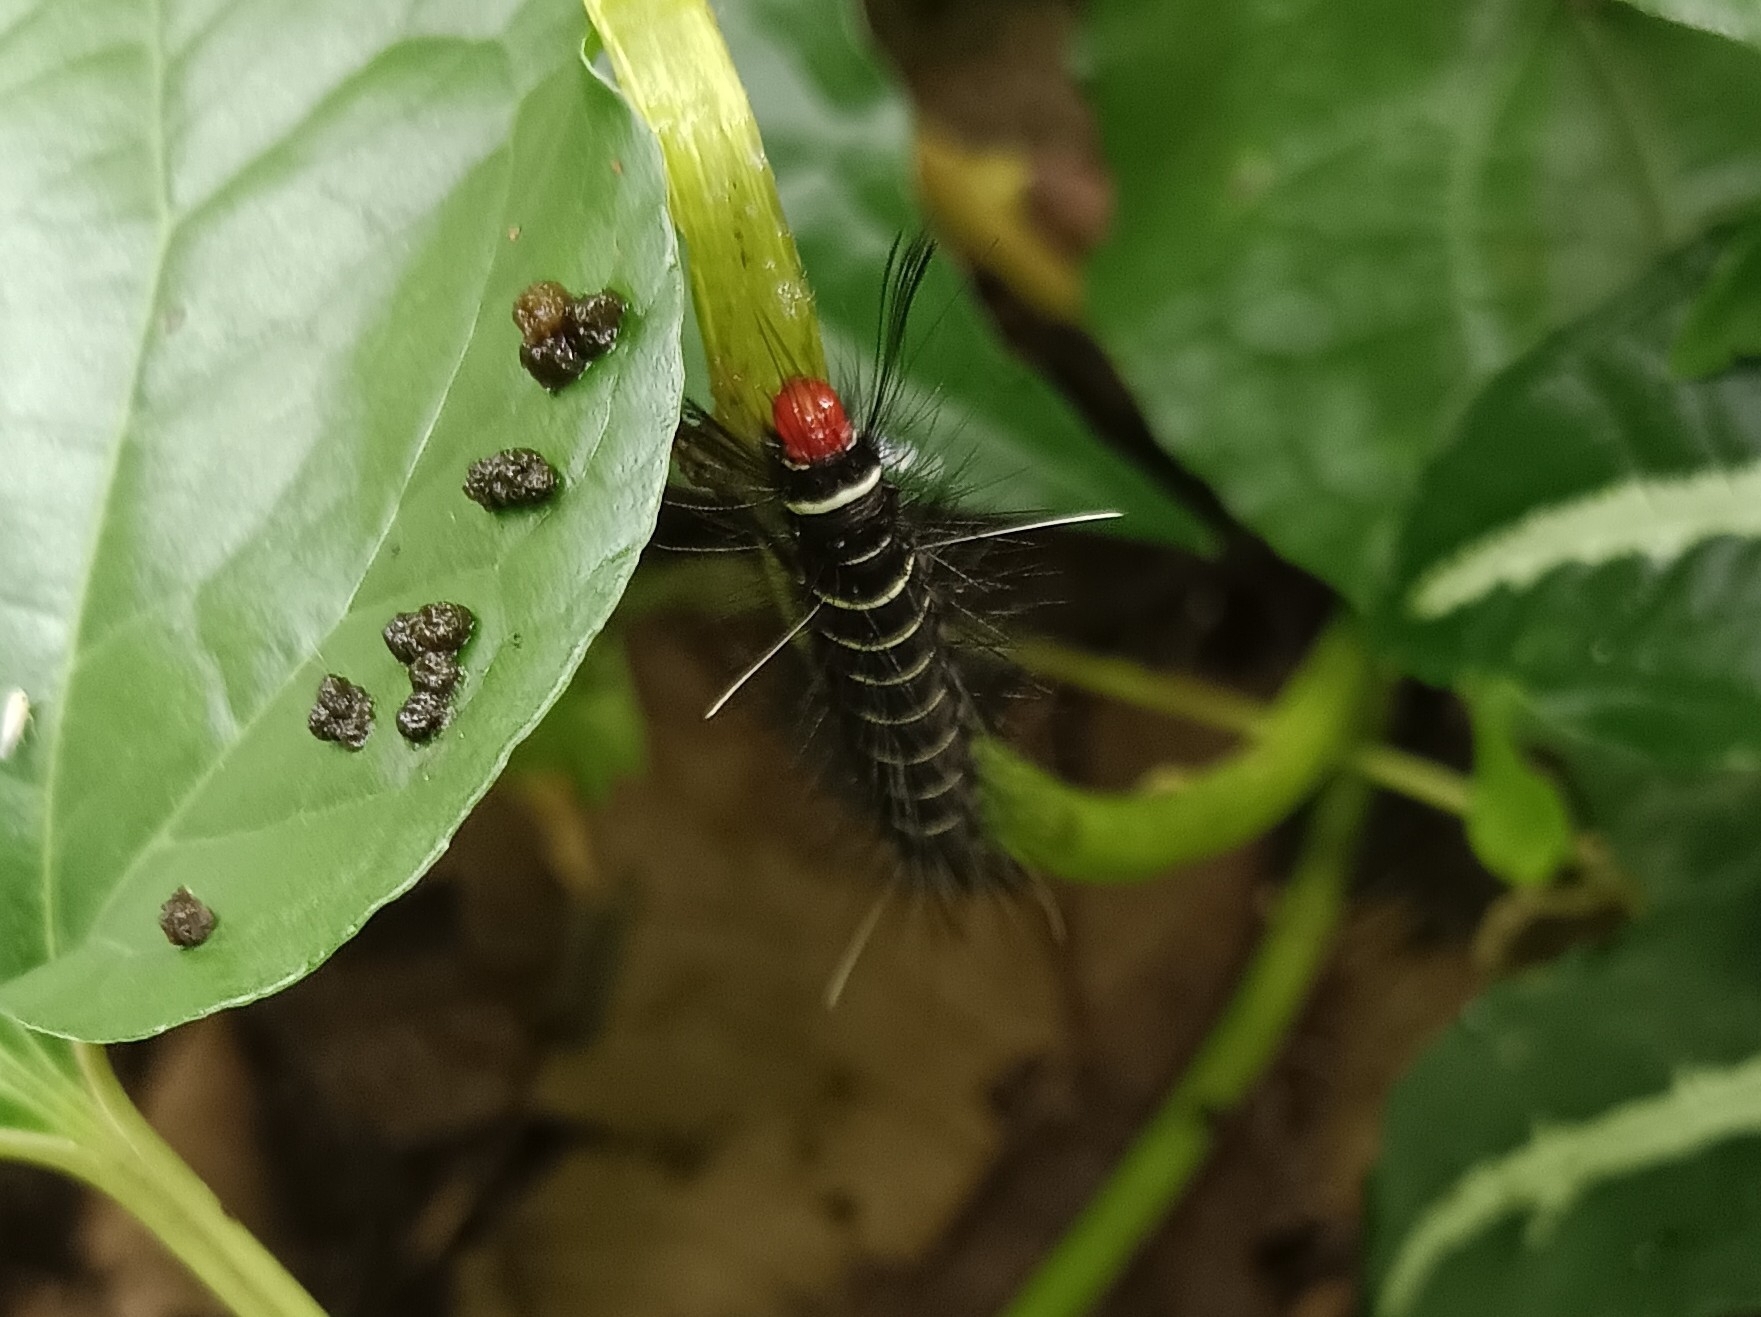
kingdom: Animalia
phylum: Arthropoda
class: Insecta
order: Lepidoptera
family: Erebidae
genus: Nyctemera
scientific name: Nyctemera coleta
